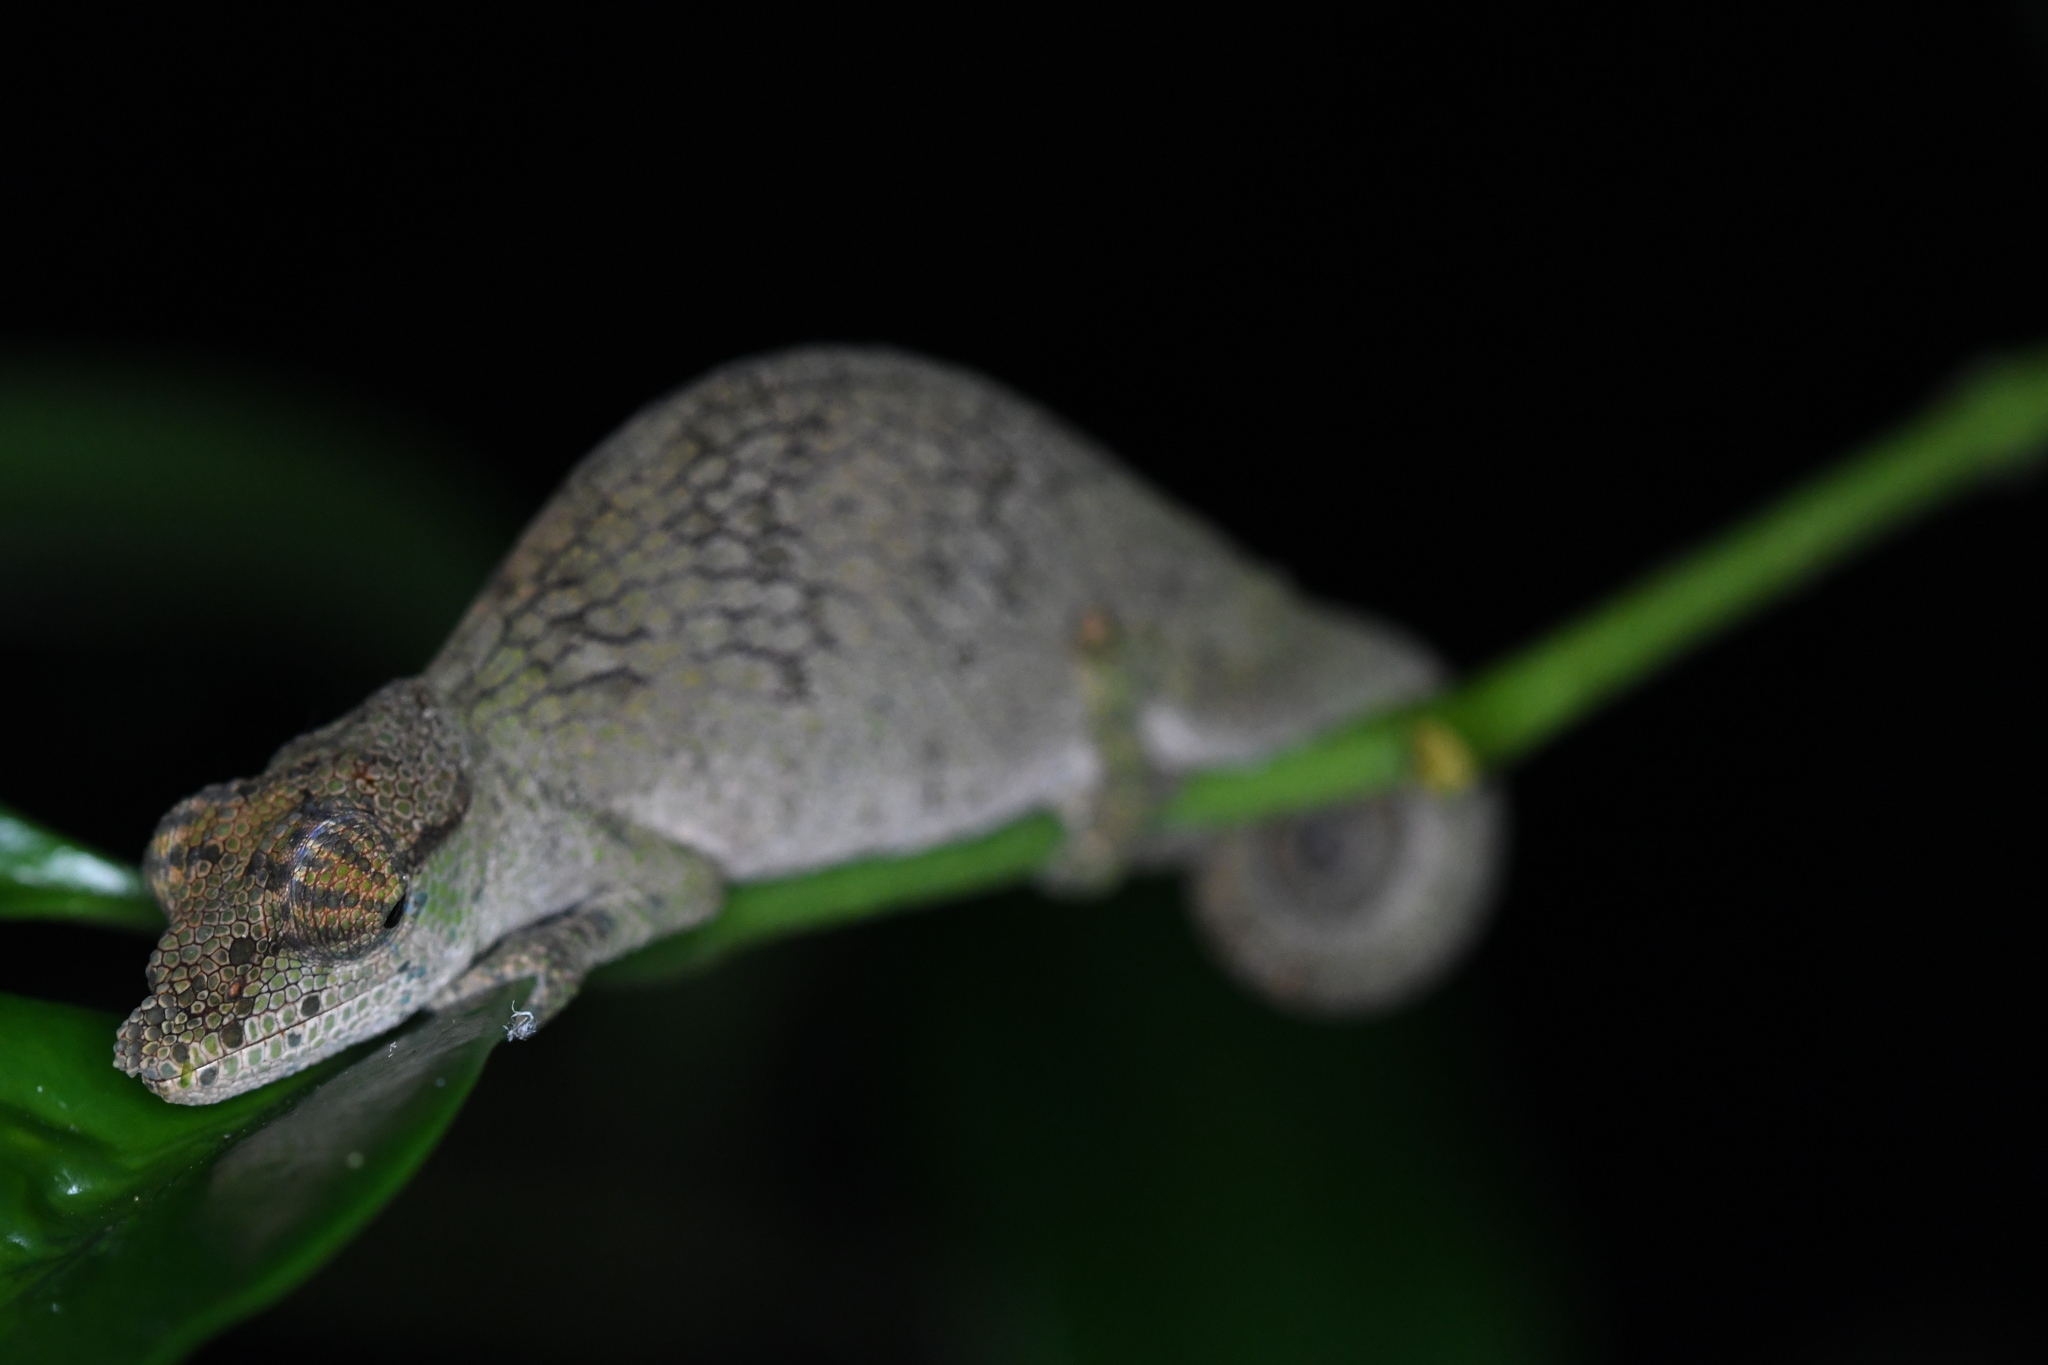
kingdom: Animalia
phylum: Chordata
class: Squamata
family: Chamaeleonidae
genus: Calumma
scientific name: Calumma tjiasmantoi
